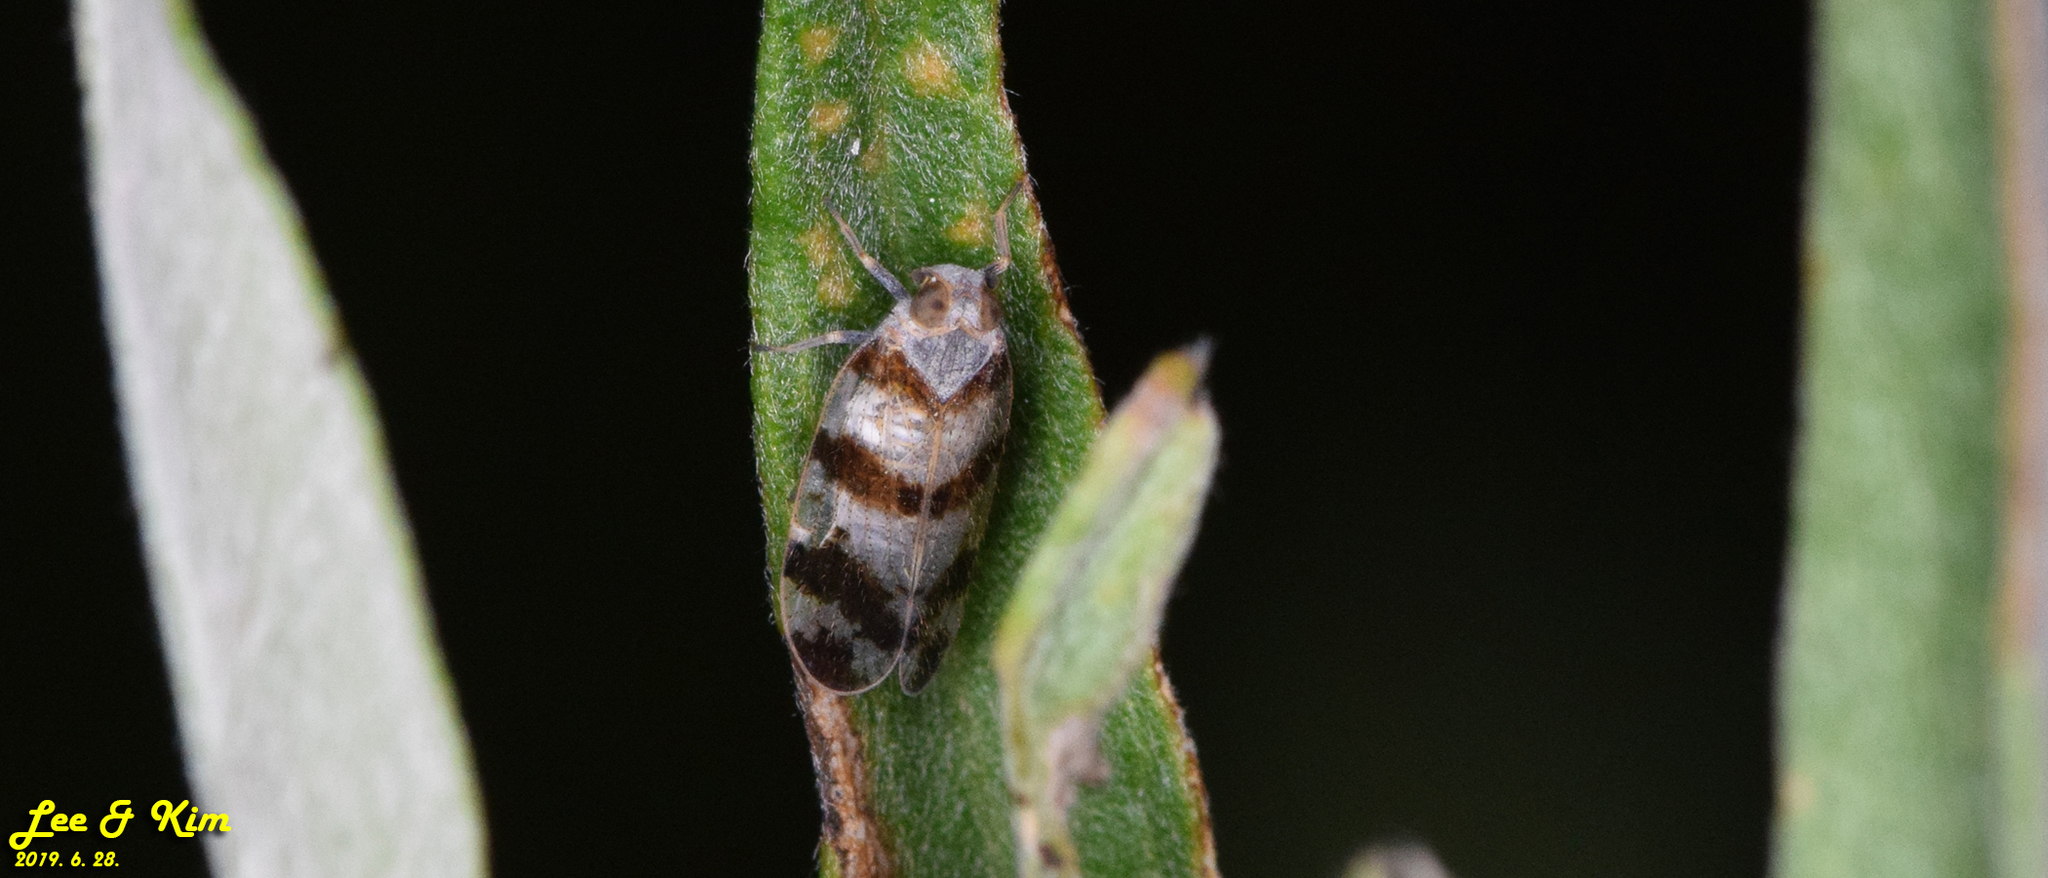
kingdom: Animalia
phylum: Arthropoda
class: Insecta
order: Hemiptera
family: Cixiidae
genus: Reptalus
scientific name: Reptalus quadricinctus
